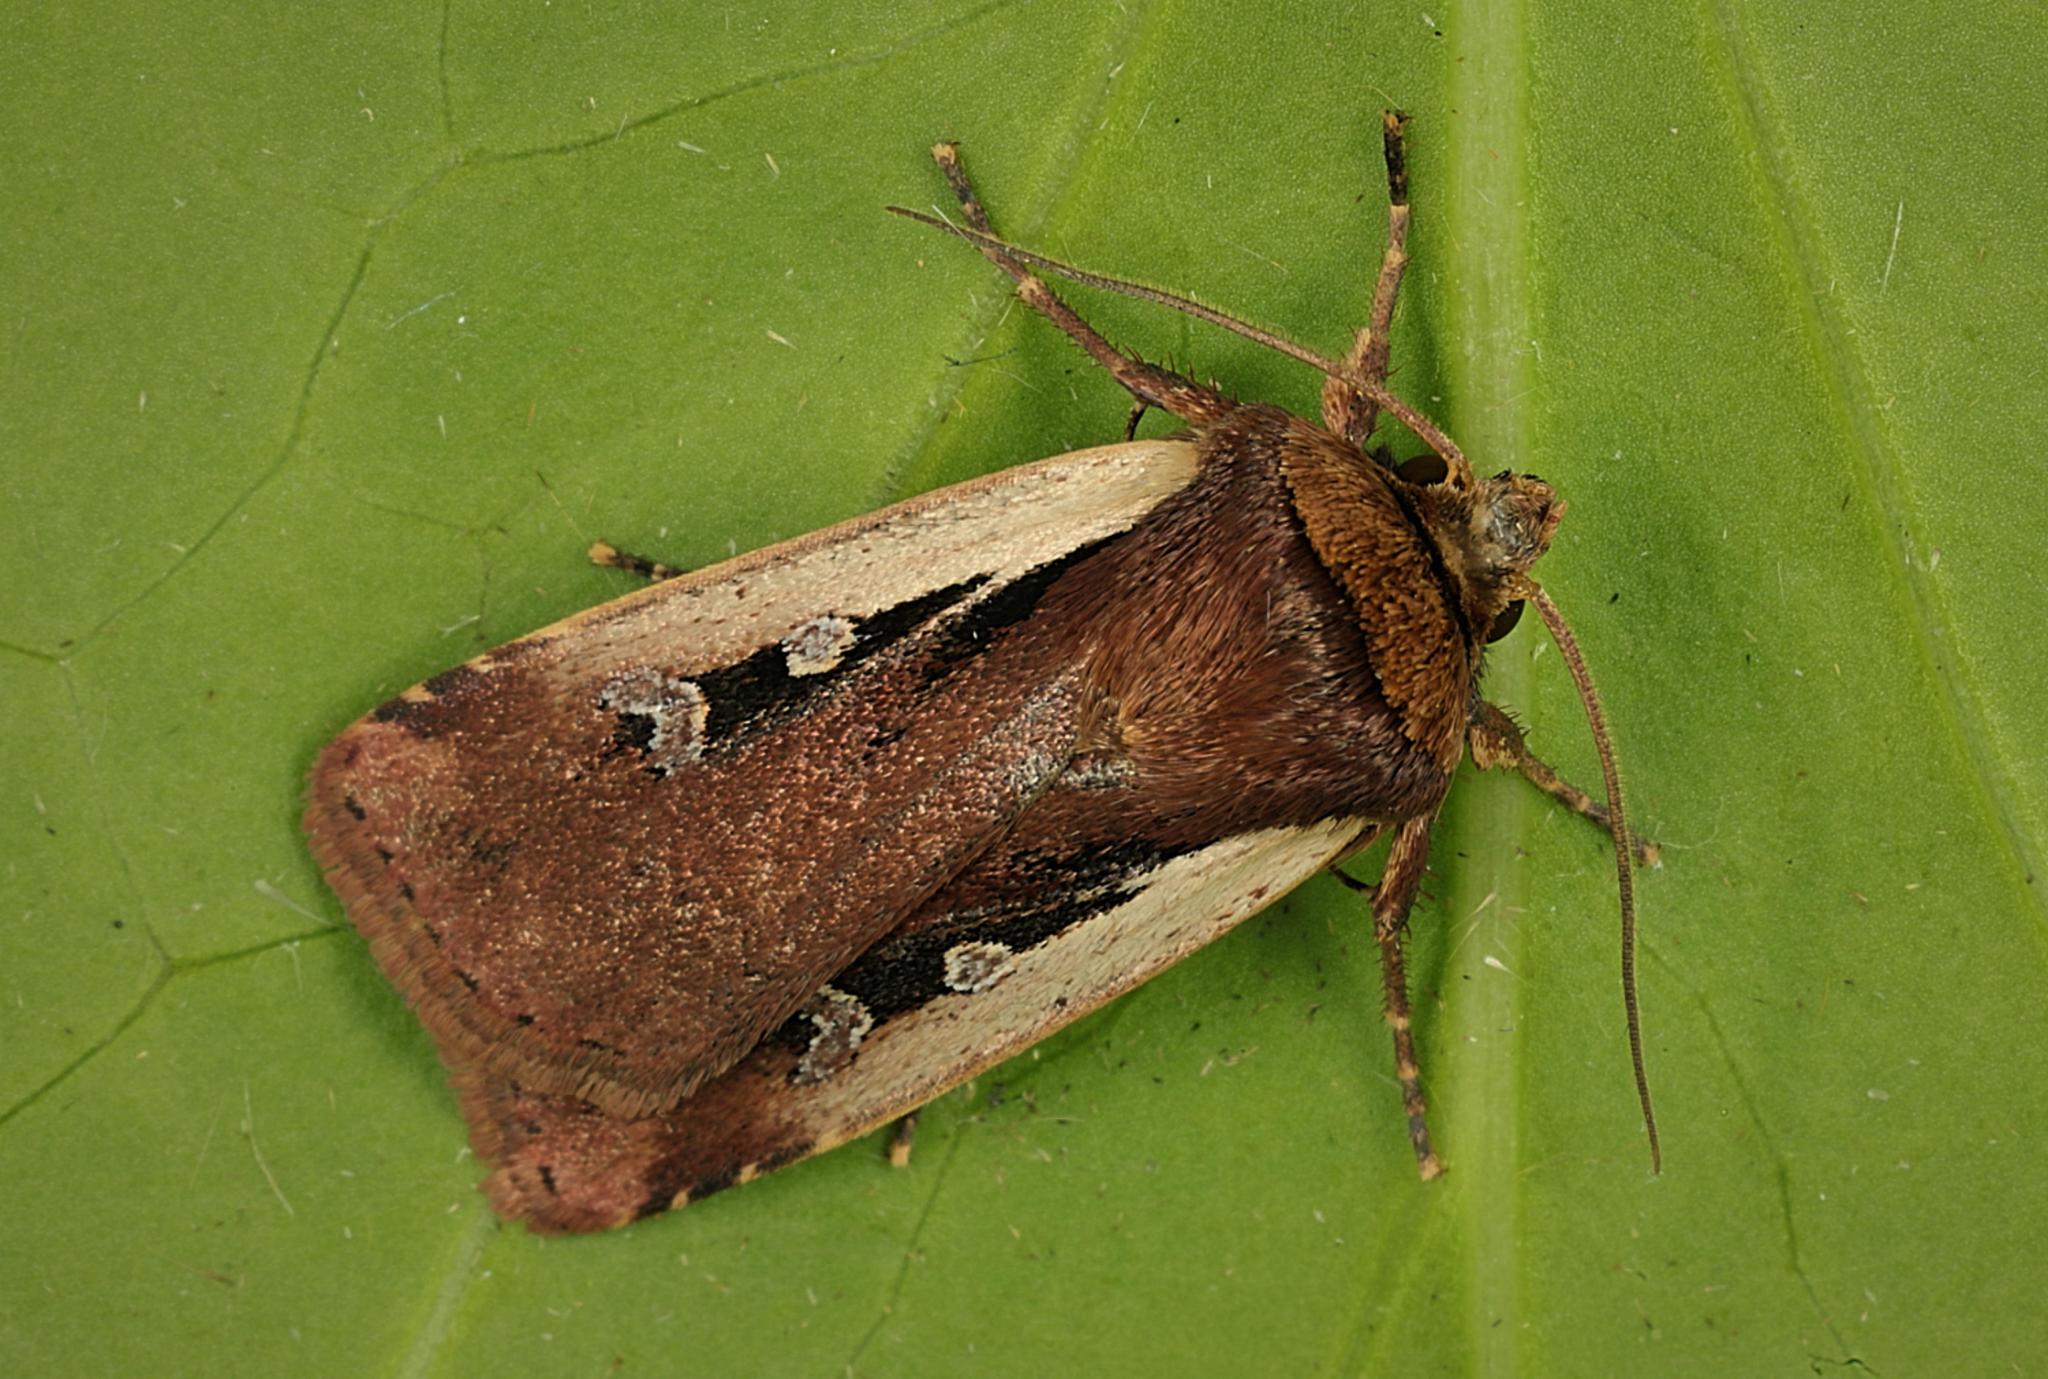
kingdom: Animalia
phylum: Arthropoda
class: Insecta
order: Lepidoptera
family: Noctuidae
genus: Ochropleura
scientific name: Ochropleura plecta
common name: Flame shoulder
